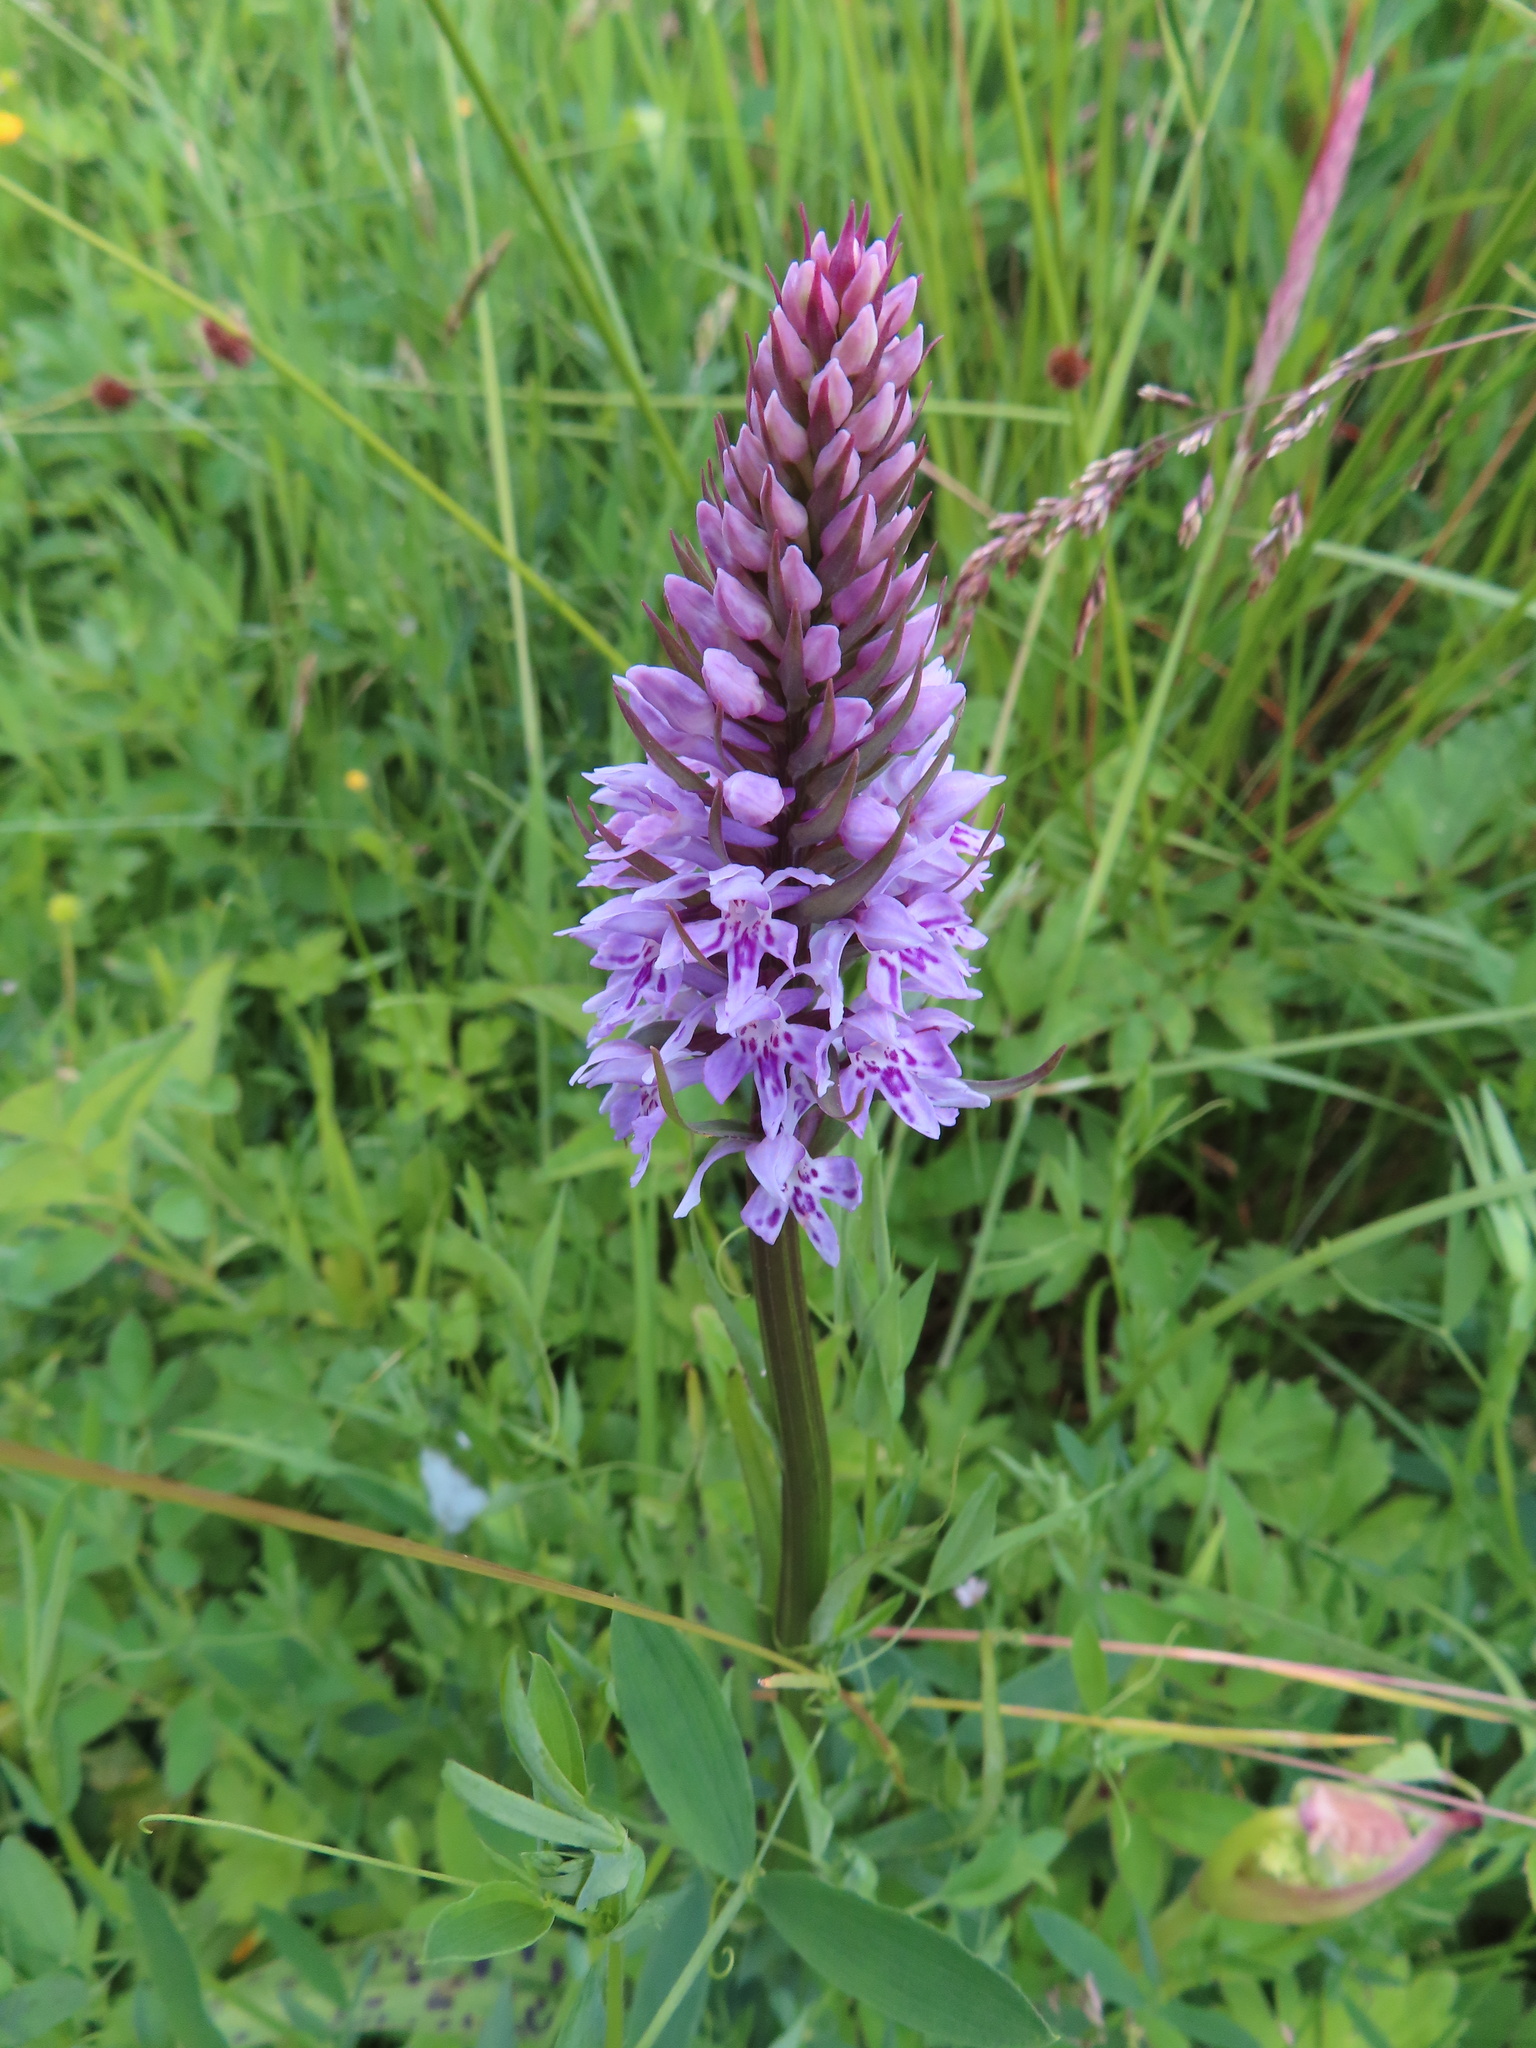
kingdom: Plantae
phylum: Tracheophyta
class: Liliopsida
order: Asparagales
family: Orchidaceae
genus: Dactylorhiza
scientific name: Dactylorhiza maculata
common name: Heath spotted-orchid
